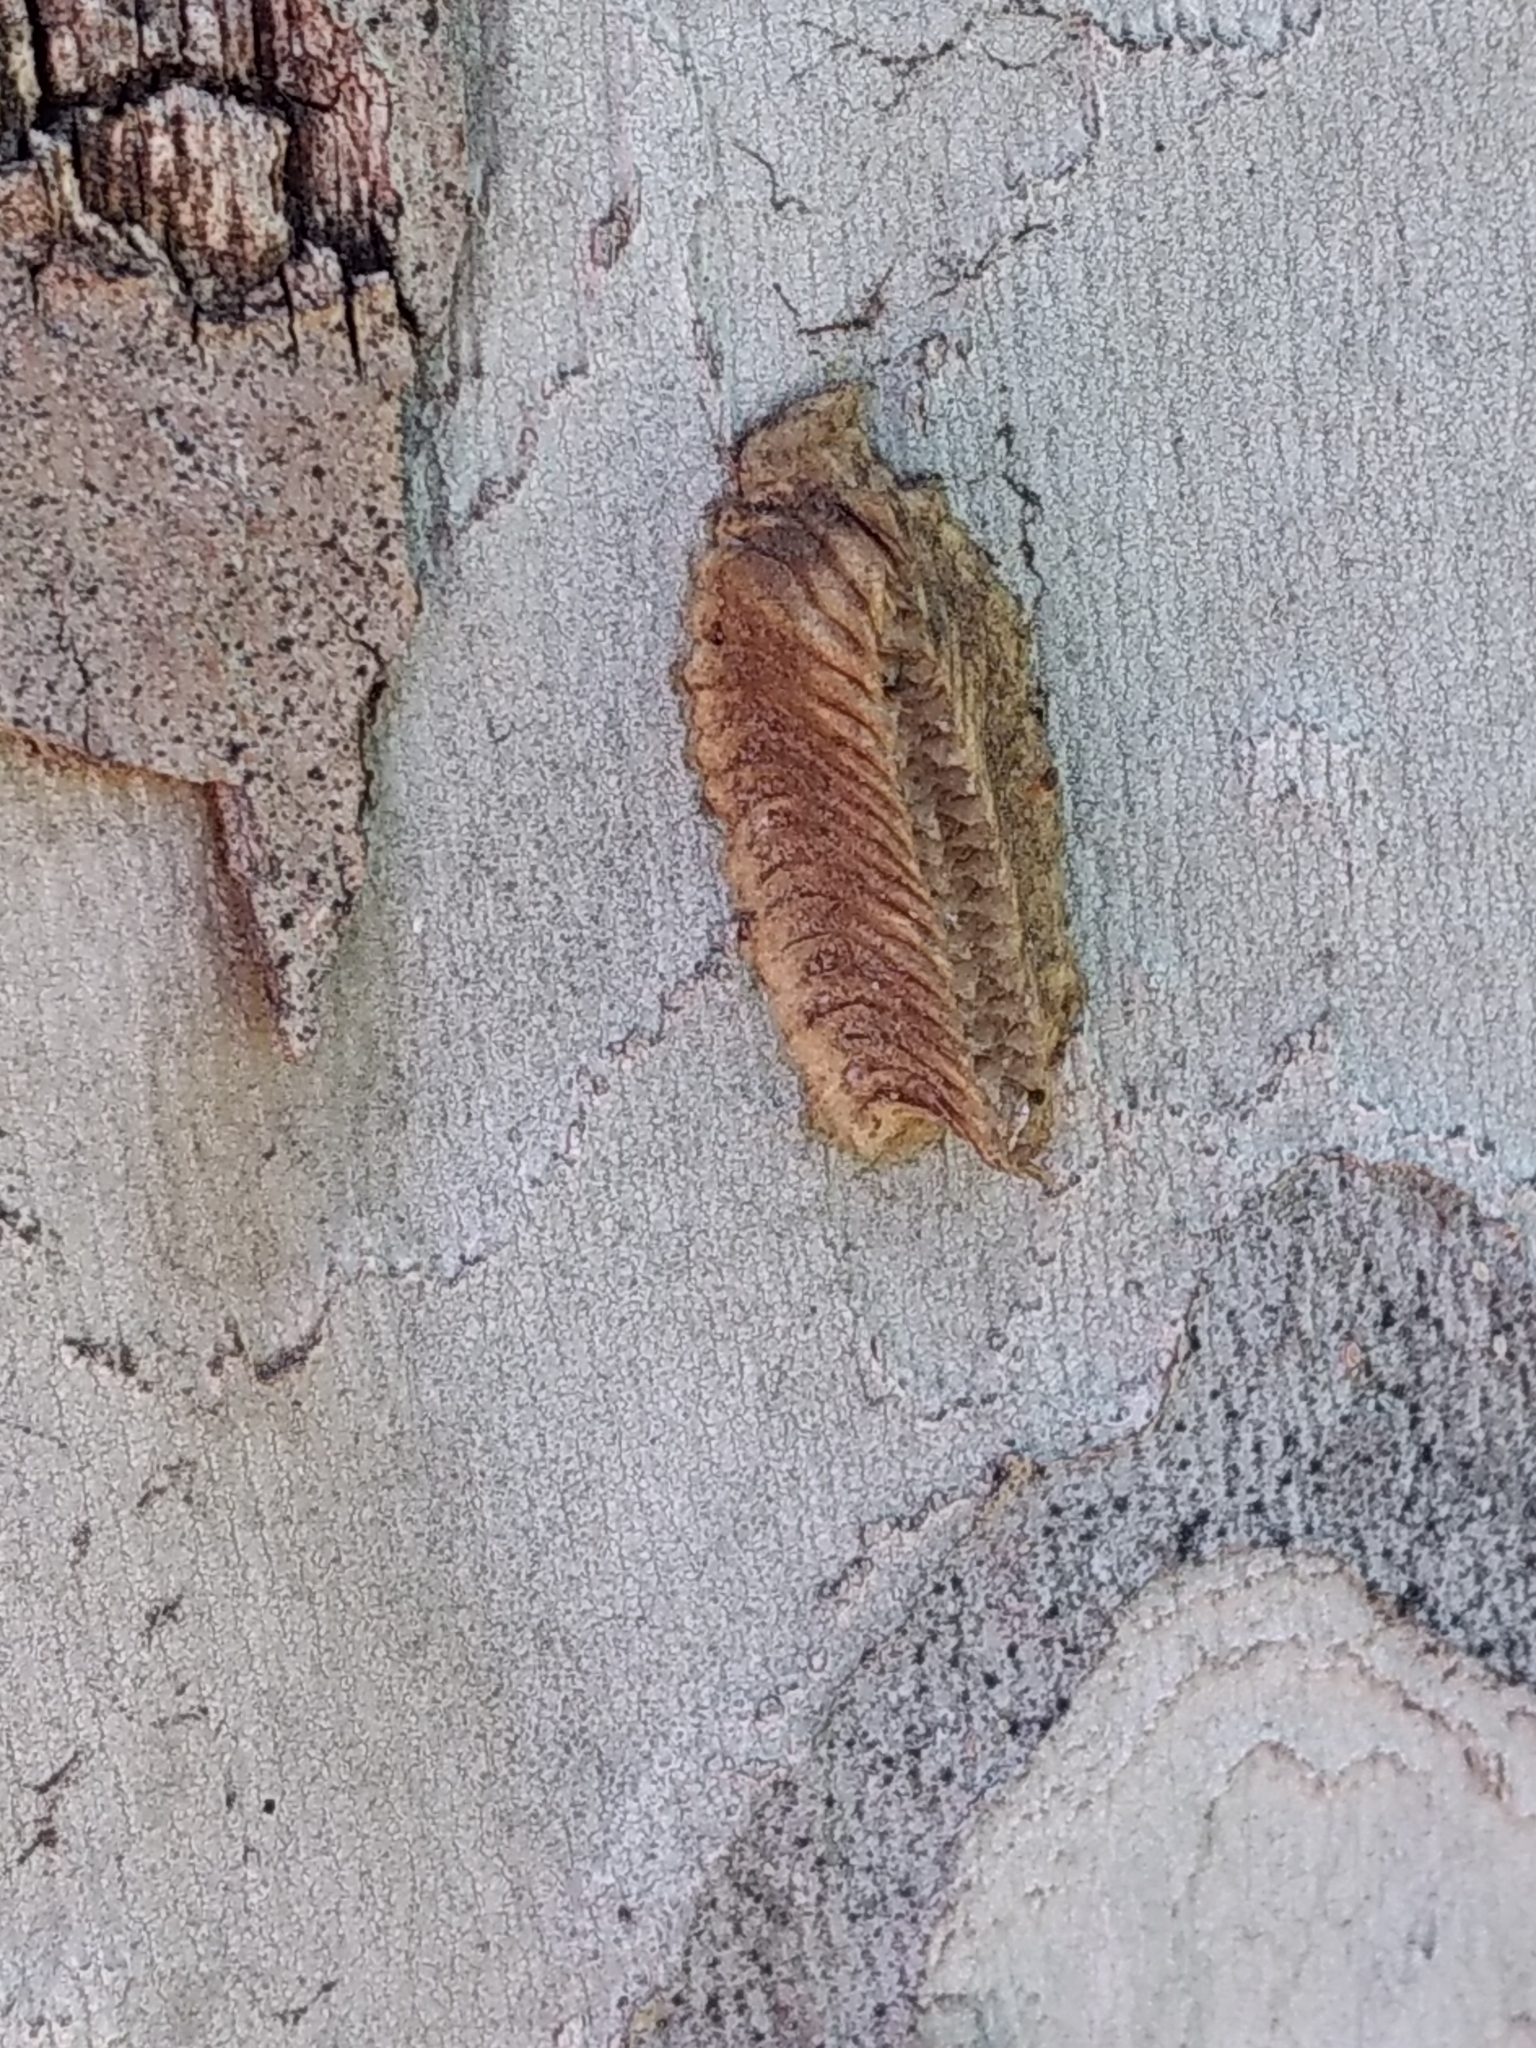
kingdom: Animalia
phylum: Arthropoda
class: Insecta
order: Mantodea
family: Eremiaphilidae
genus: Iris
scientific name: Iris oratoria
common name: Mediterranean mantis
